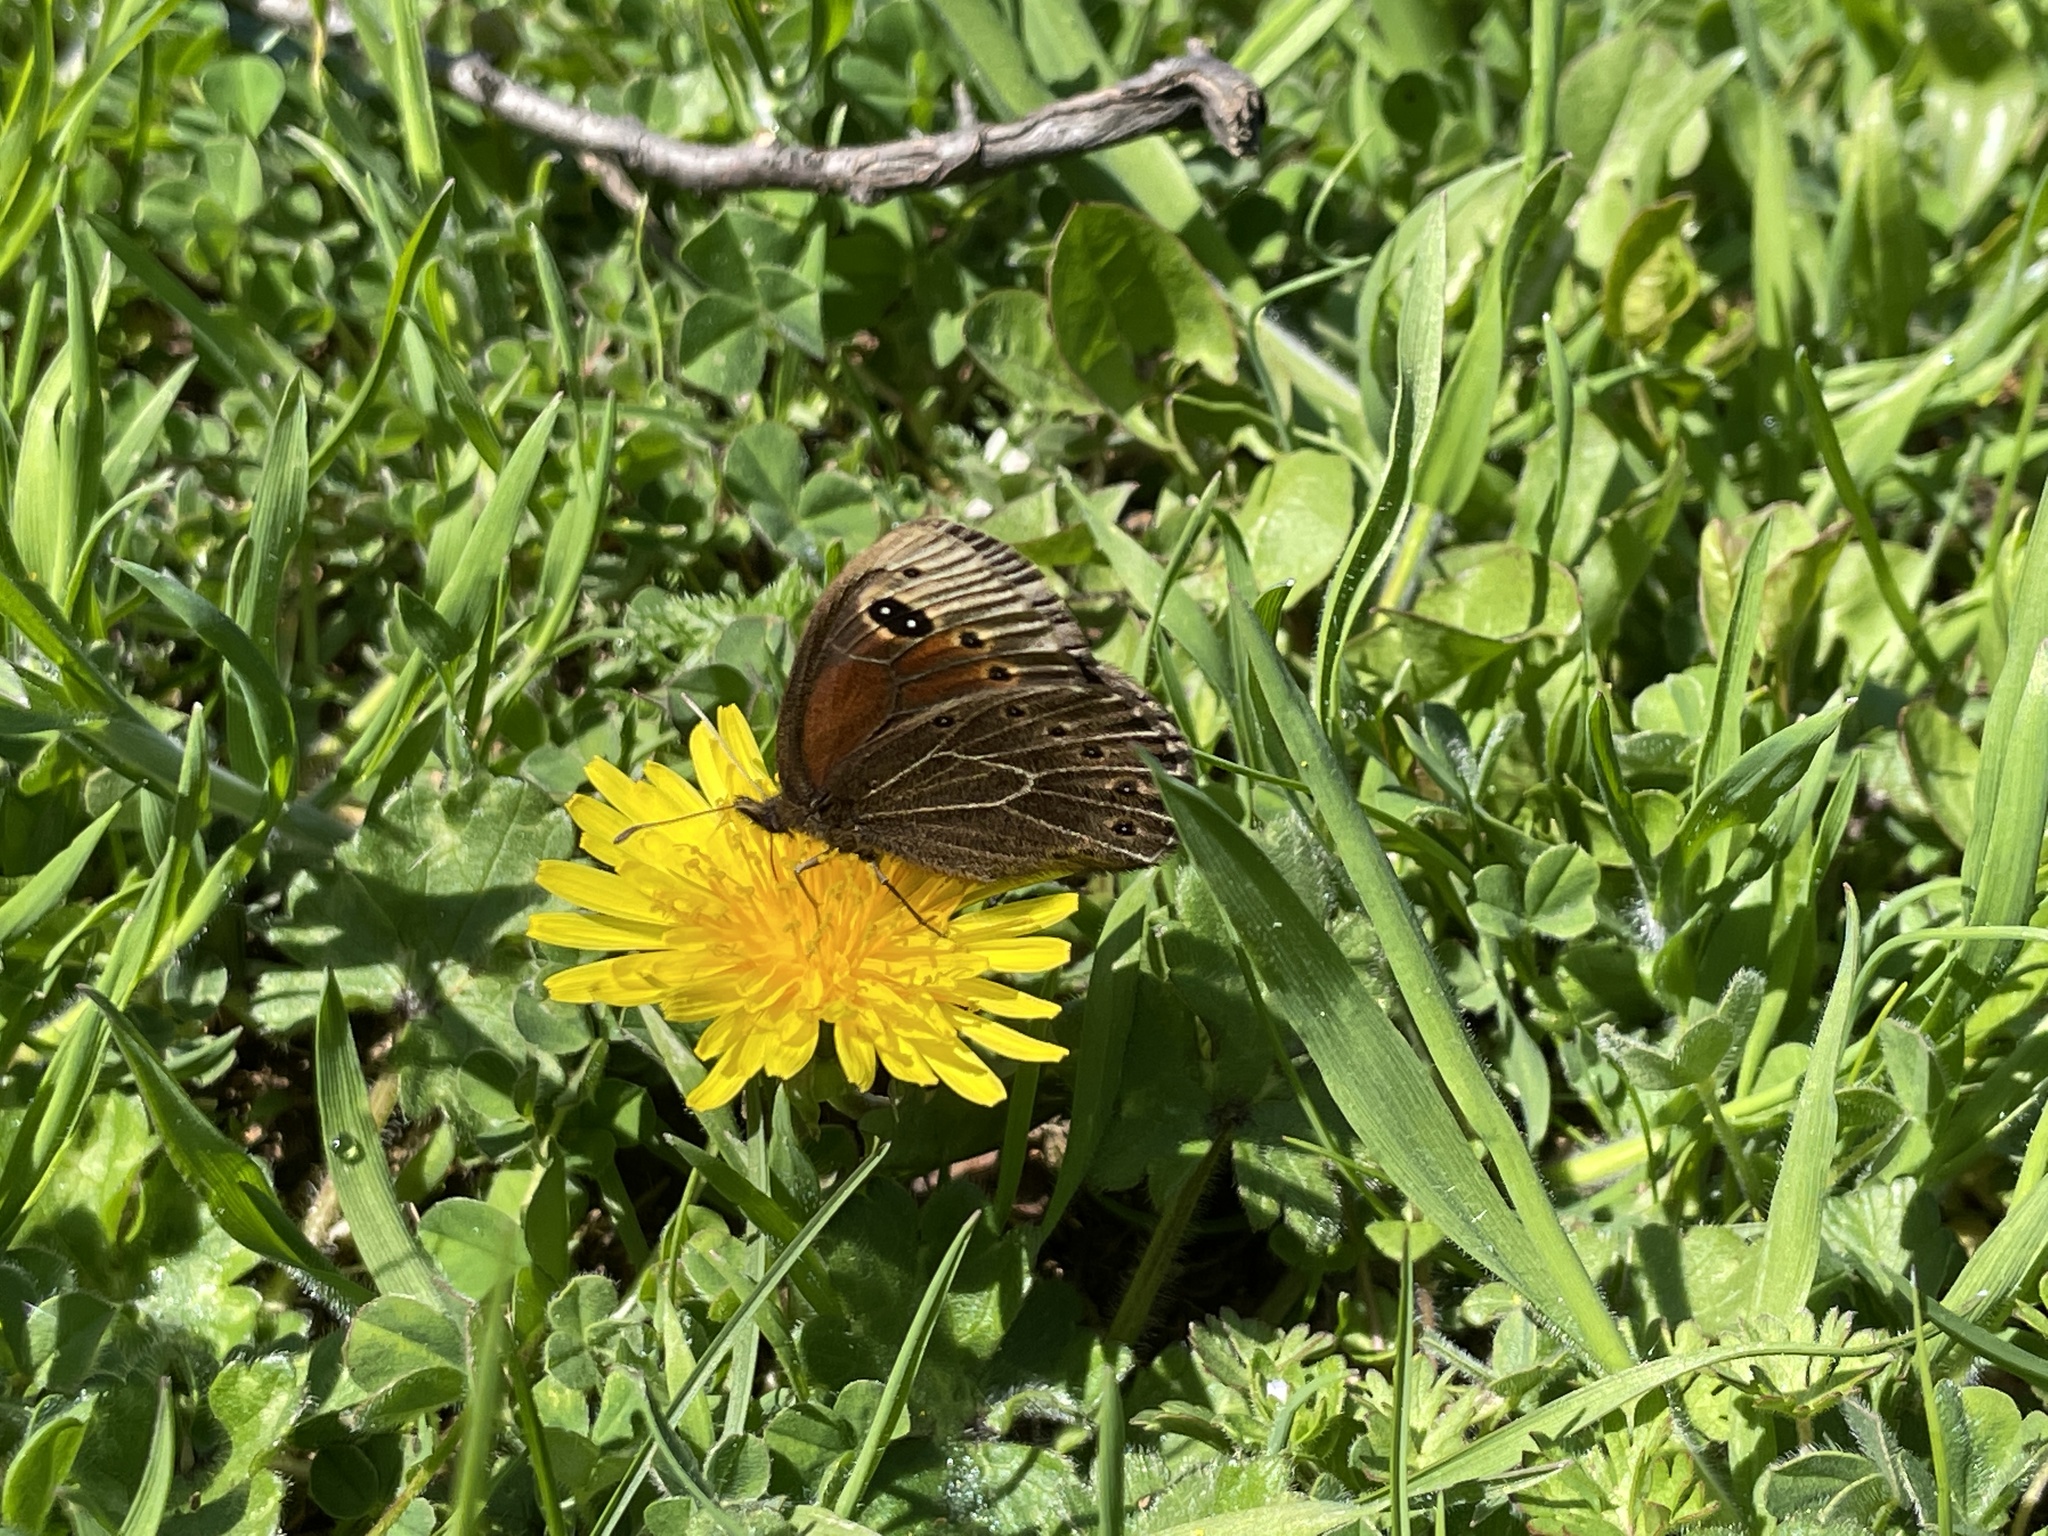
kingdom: Animalia
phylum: Arthropoda
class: Insecta
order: Lepidoptera
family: Nymphalidae
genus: Proterebia
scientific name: Proterebia afra
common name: Dalmatian ringlet
